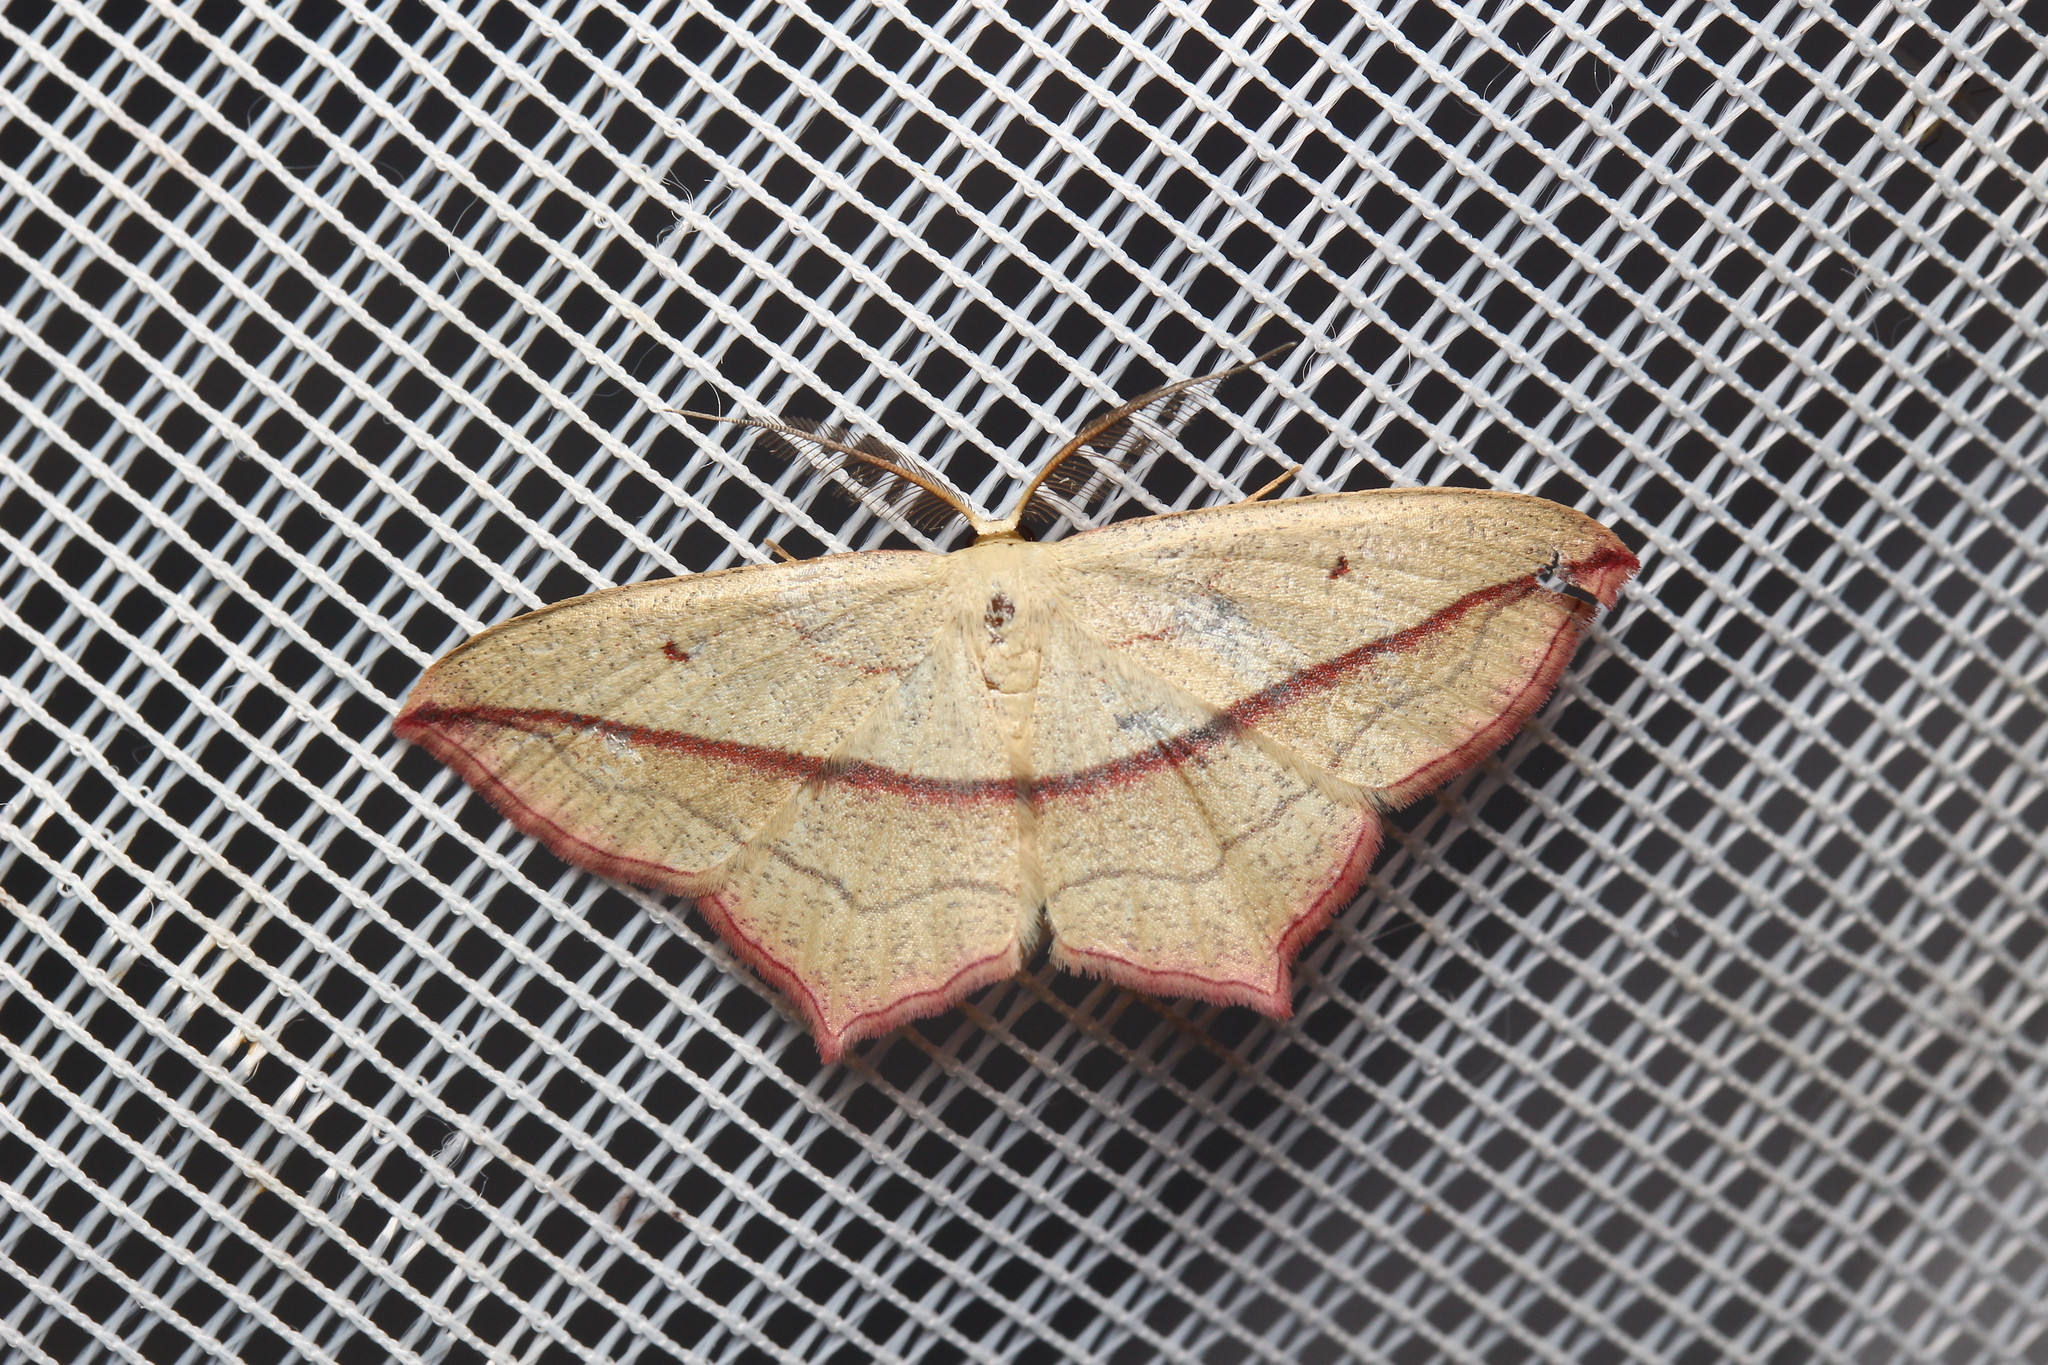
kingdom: Animalia
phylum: Arthropoda
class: Insecta
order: Lepidoptera
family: Geometridae
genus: Timandra
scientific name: Timandra comae
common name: Blood-vein
